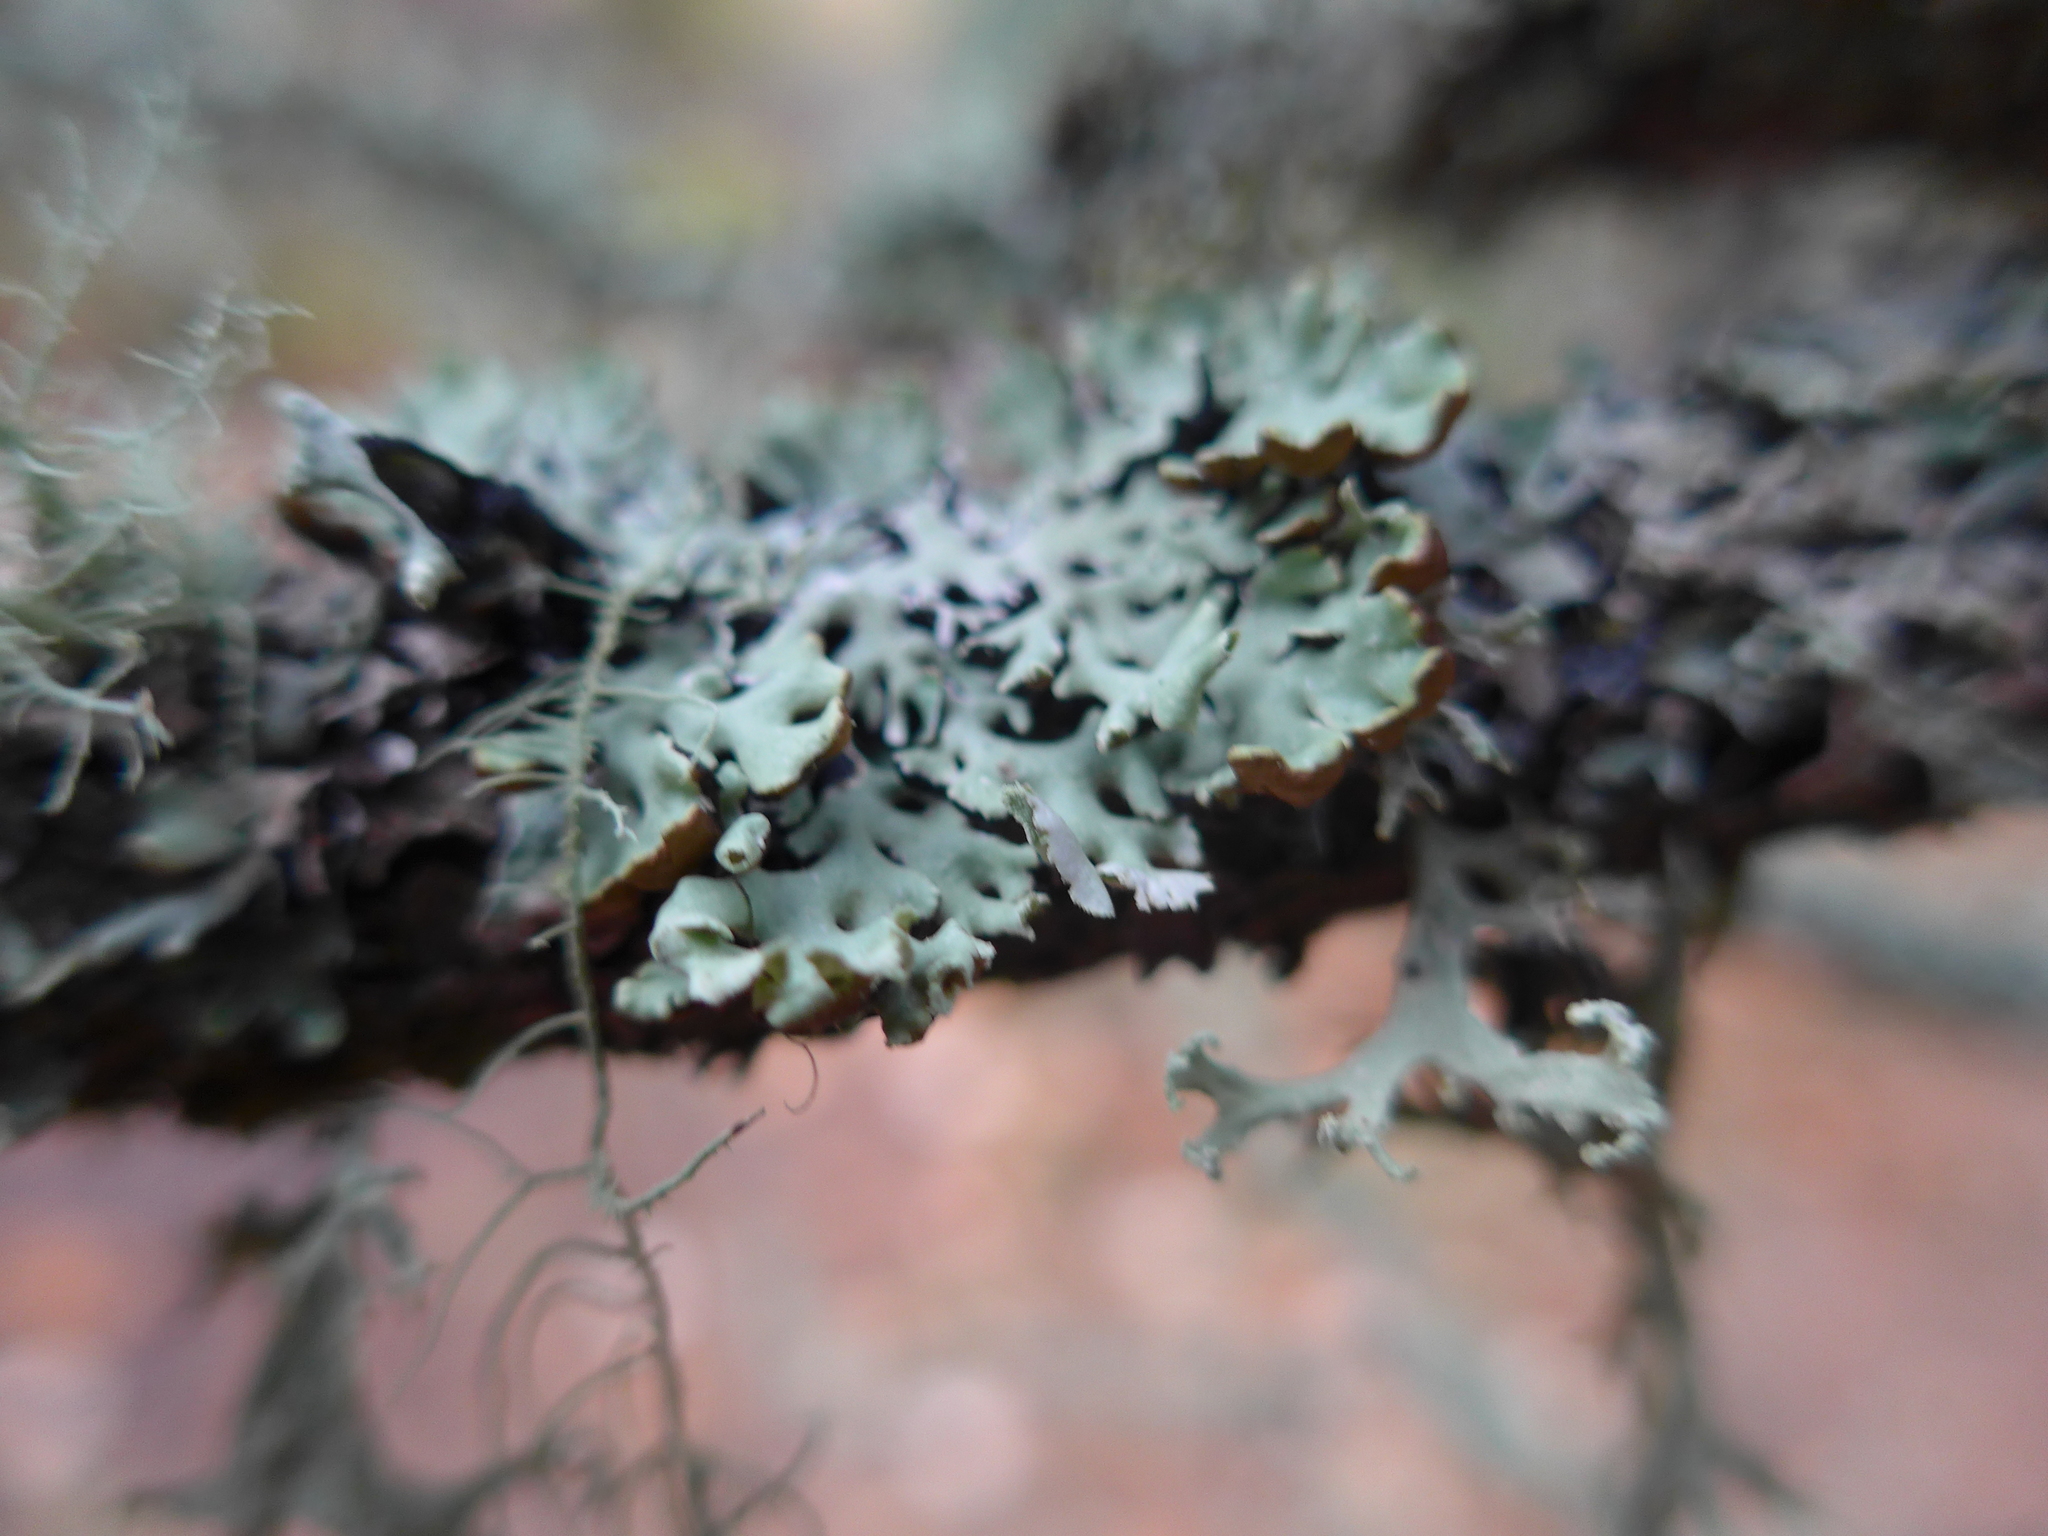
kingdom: Fungi
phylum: Ascomycota
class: Lecanoromycetes
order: Lecanorales
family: Parmeliaceae
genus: Hypogymnia
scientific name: Hypogymnia physodes
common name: Dark crottle
